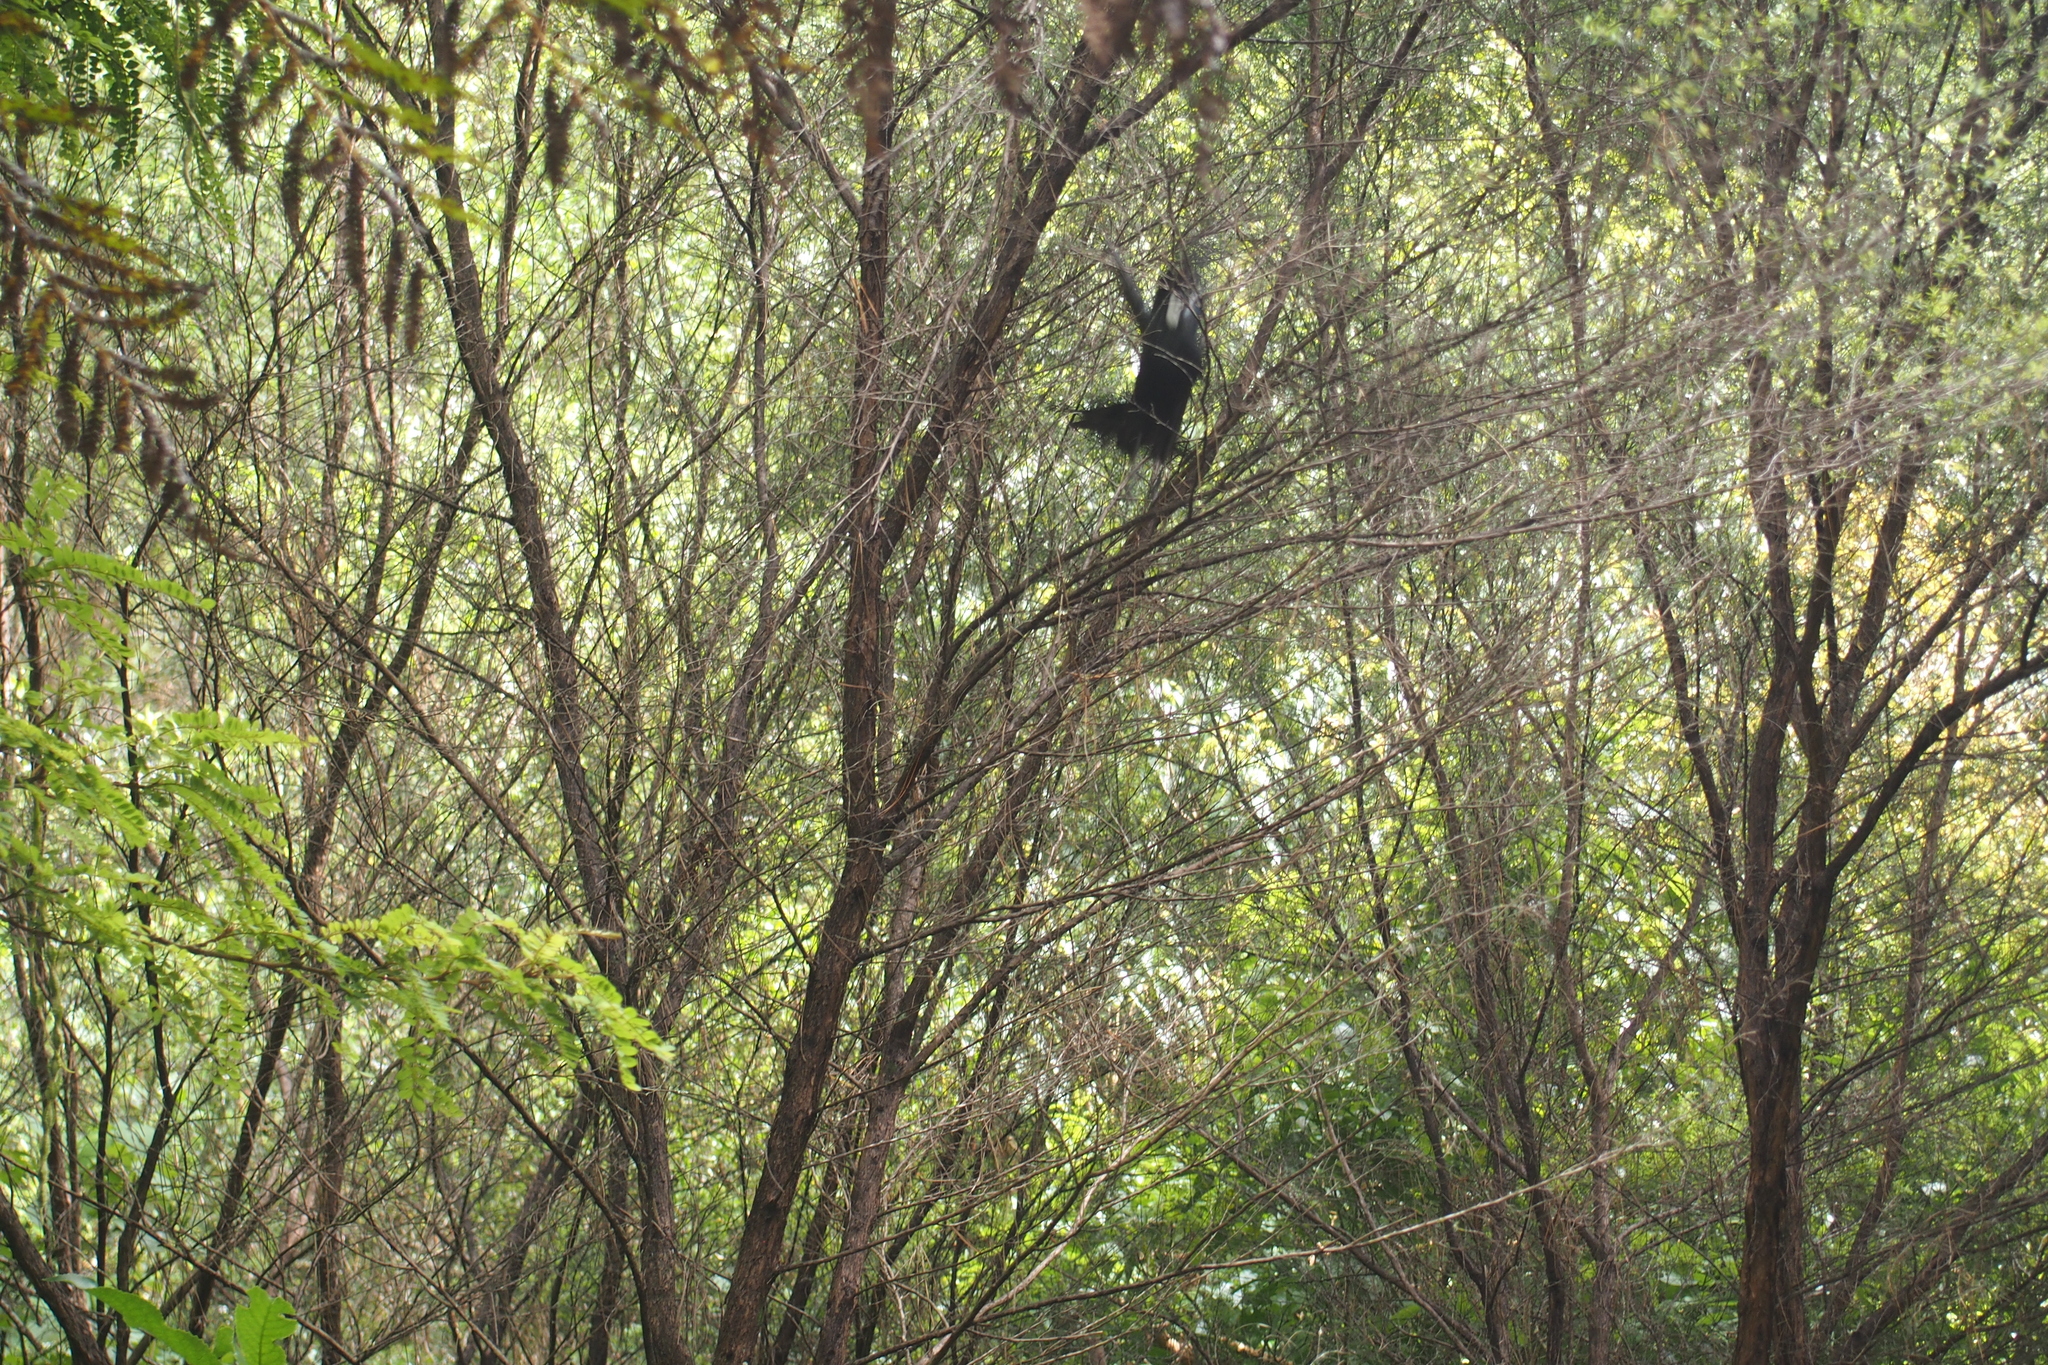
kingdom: Animalia
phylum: Chordata
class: Aves
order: Passeriformes
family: Meliphagidae
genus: Prosthemadera
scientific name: Prosthemadera novaeseelandiae
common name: Tui
